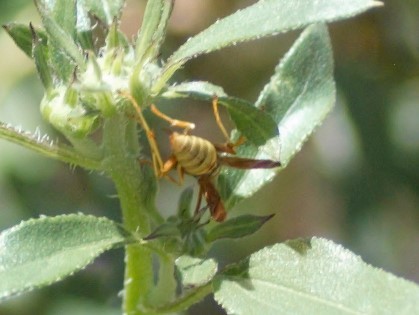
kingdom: Animalia
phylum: Arthropoda
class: Insecta
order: Hymenoptera
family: Eumenidae
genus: Polistes
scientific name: Polistes aurifer
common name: Paper wasp
